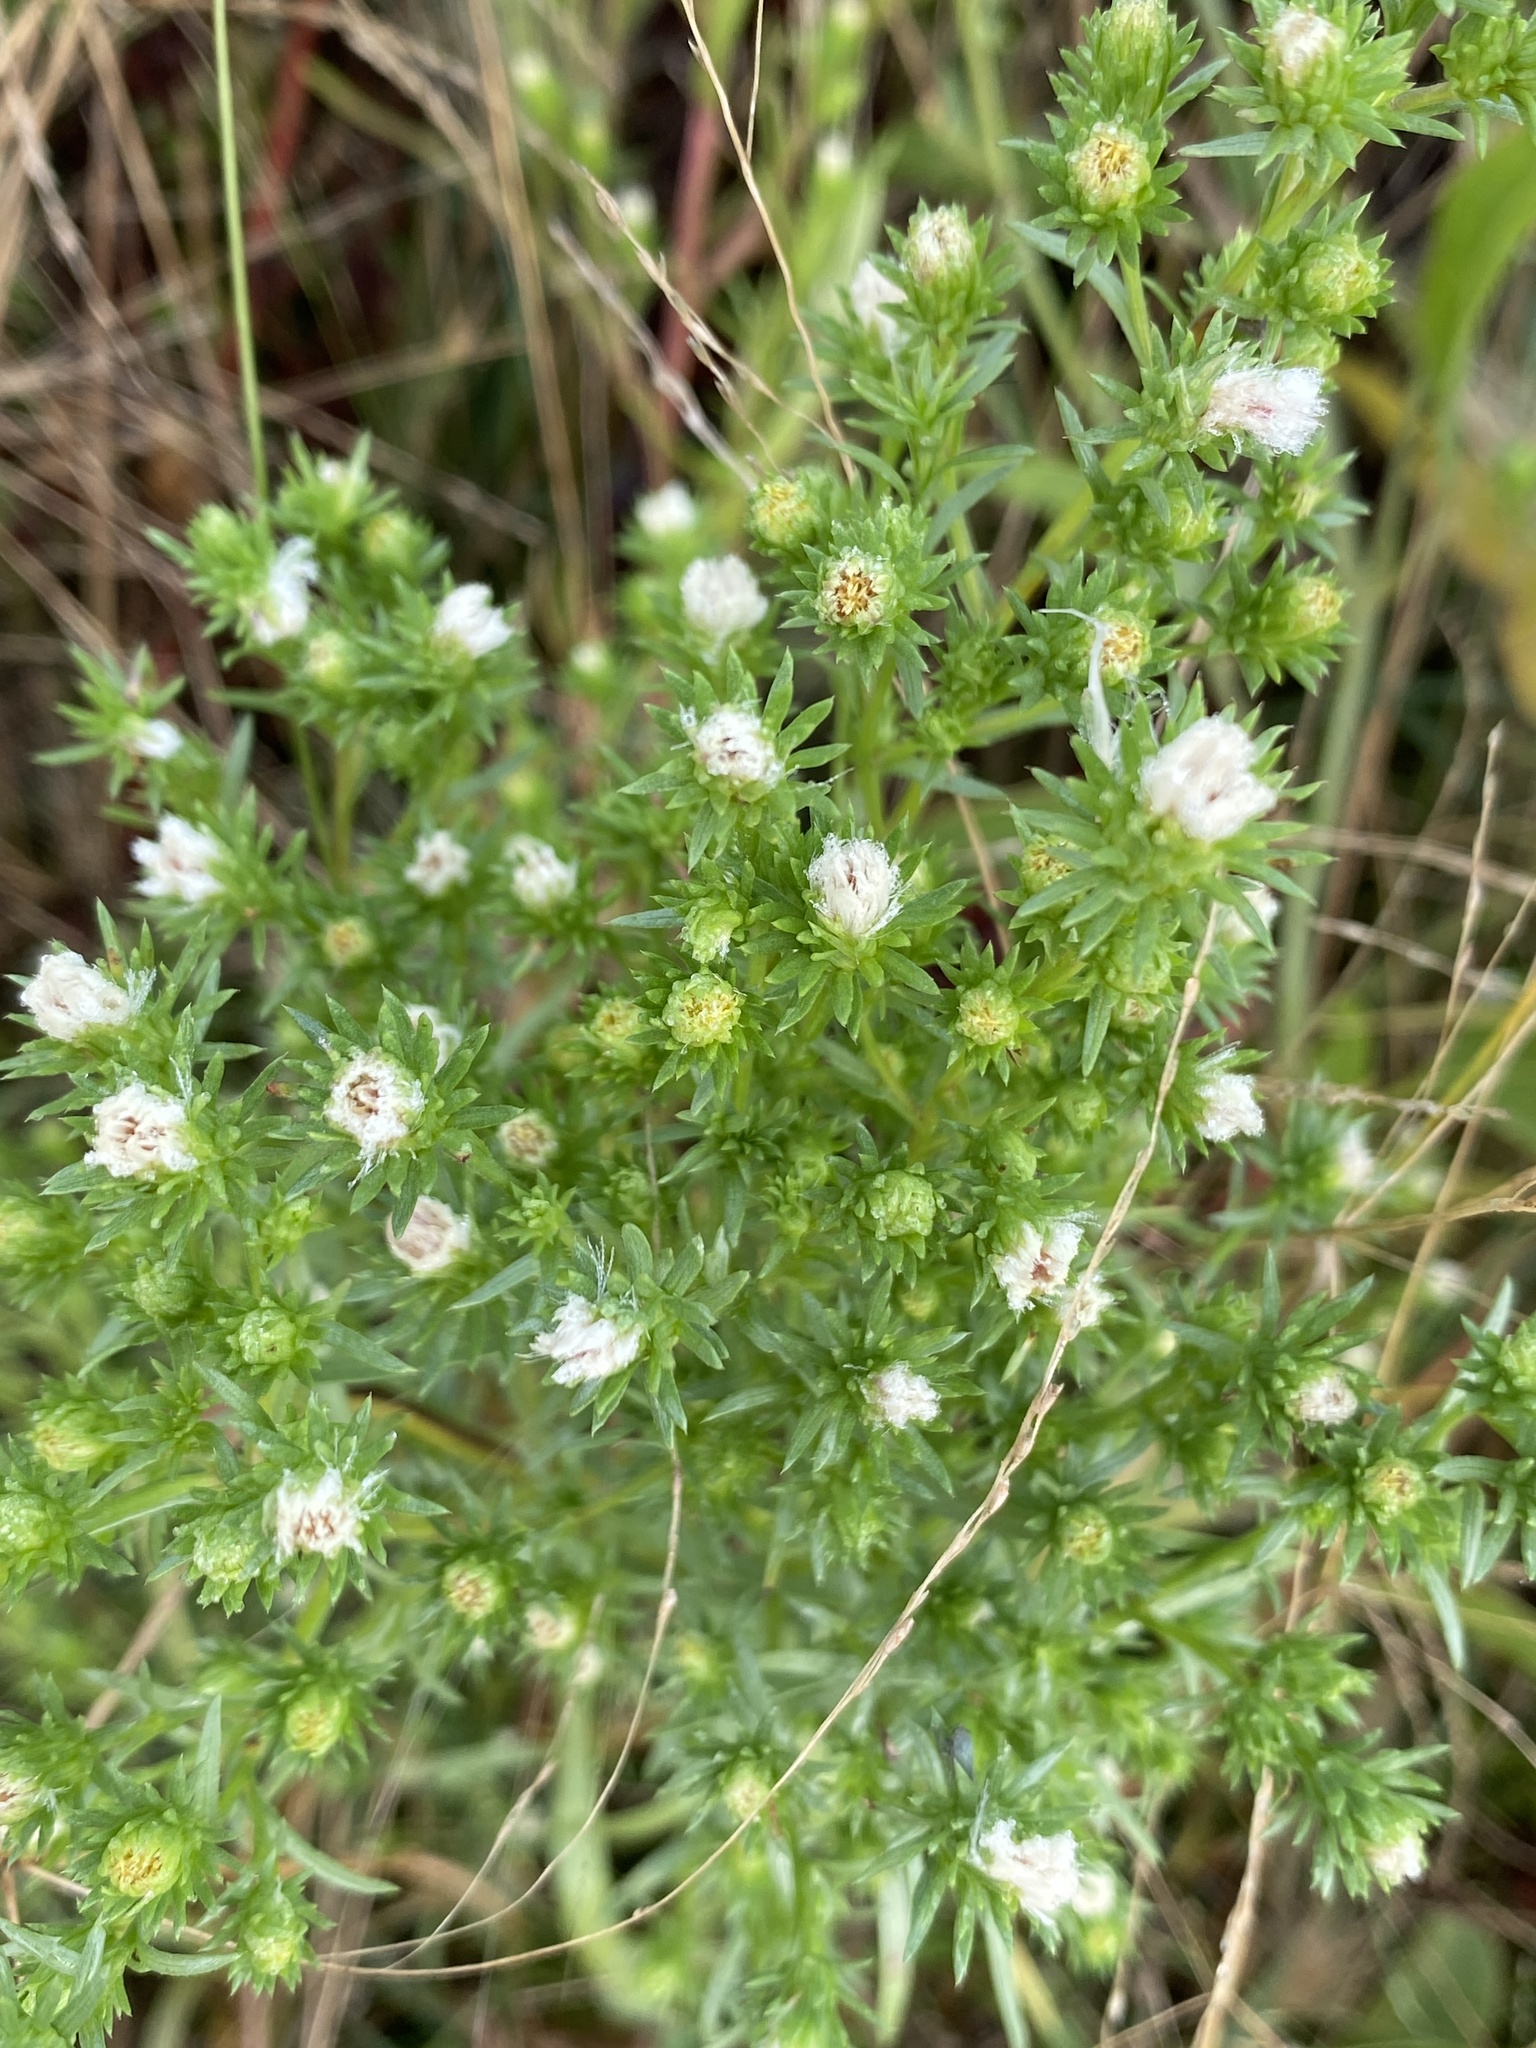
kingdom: Plantae
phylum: Tracheophyta
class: Magnoliopsida
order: Asterales
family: Asteraceae
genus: Symphyotrichum
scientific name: Symphyotrichum ciliatum
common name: Rayless annual aster
